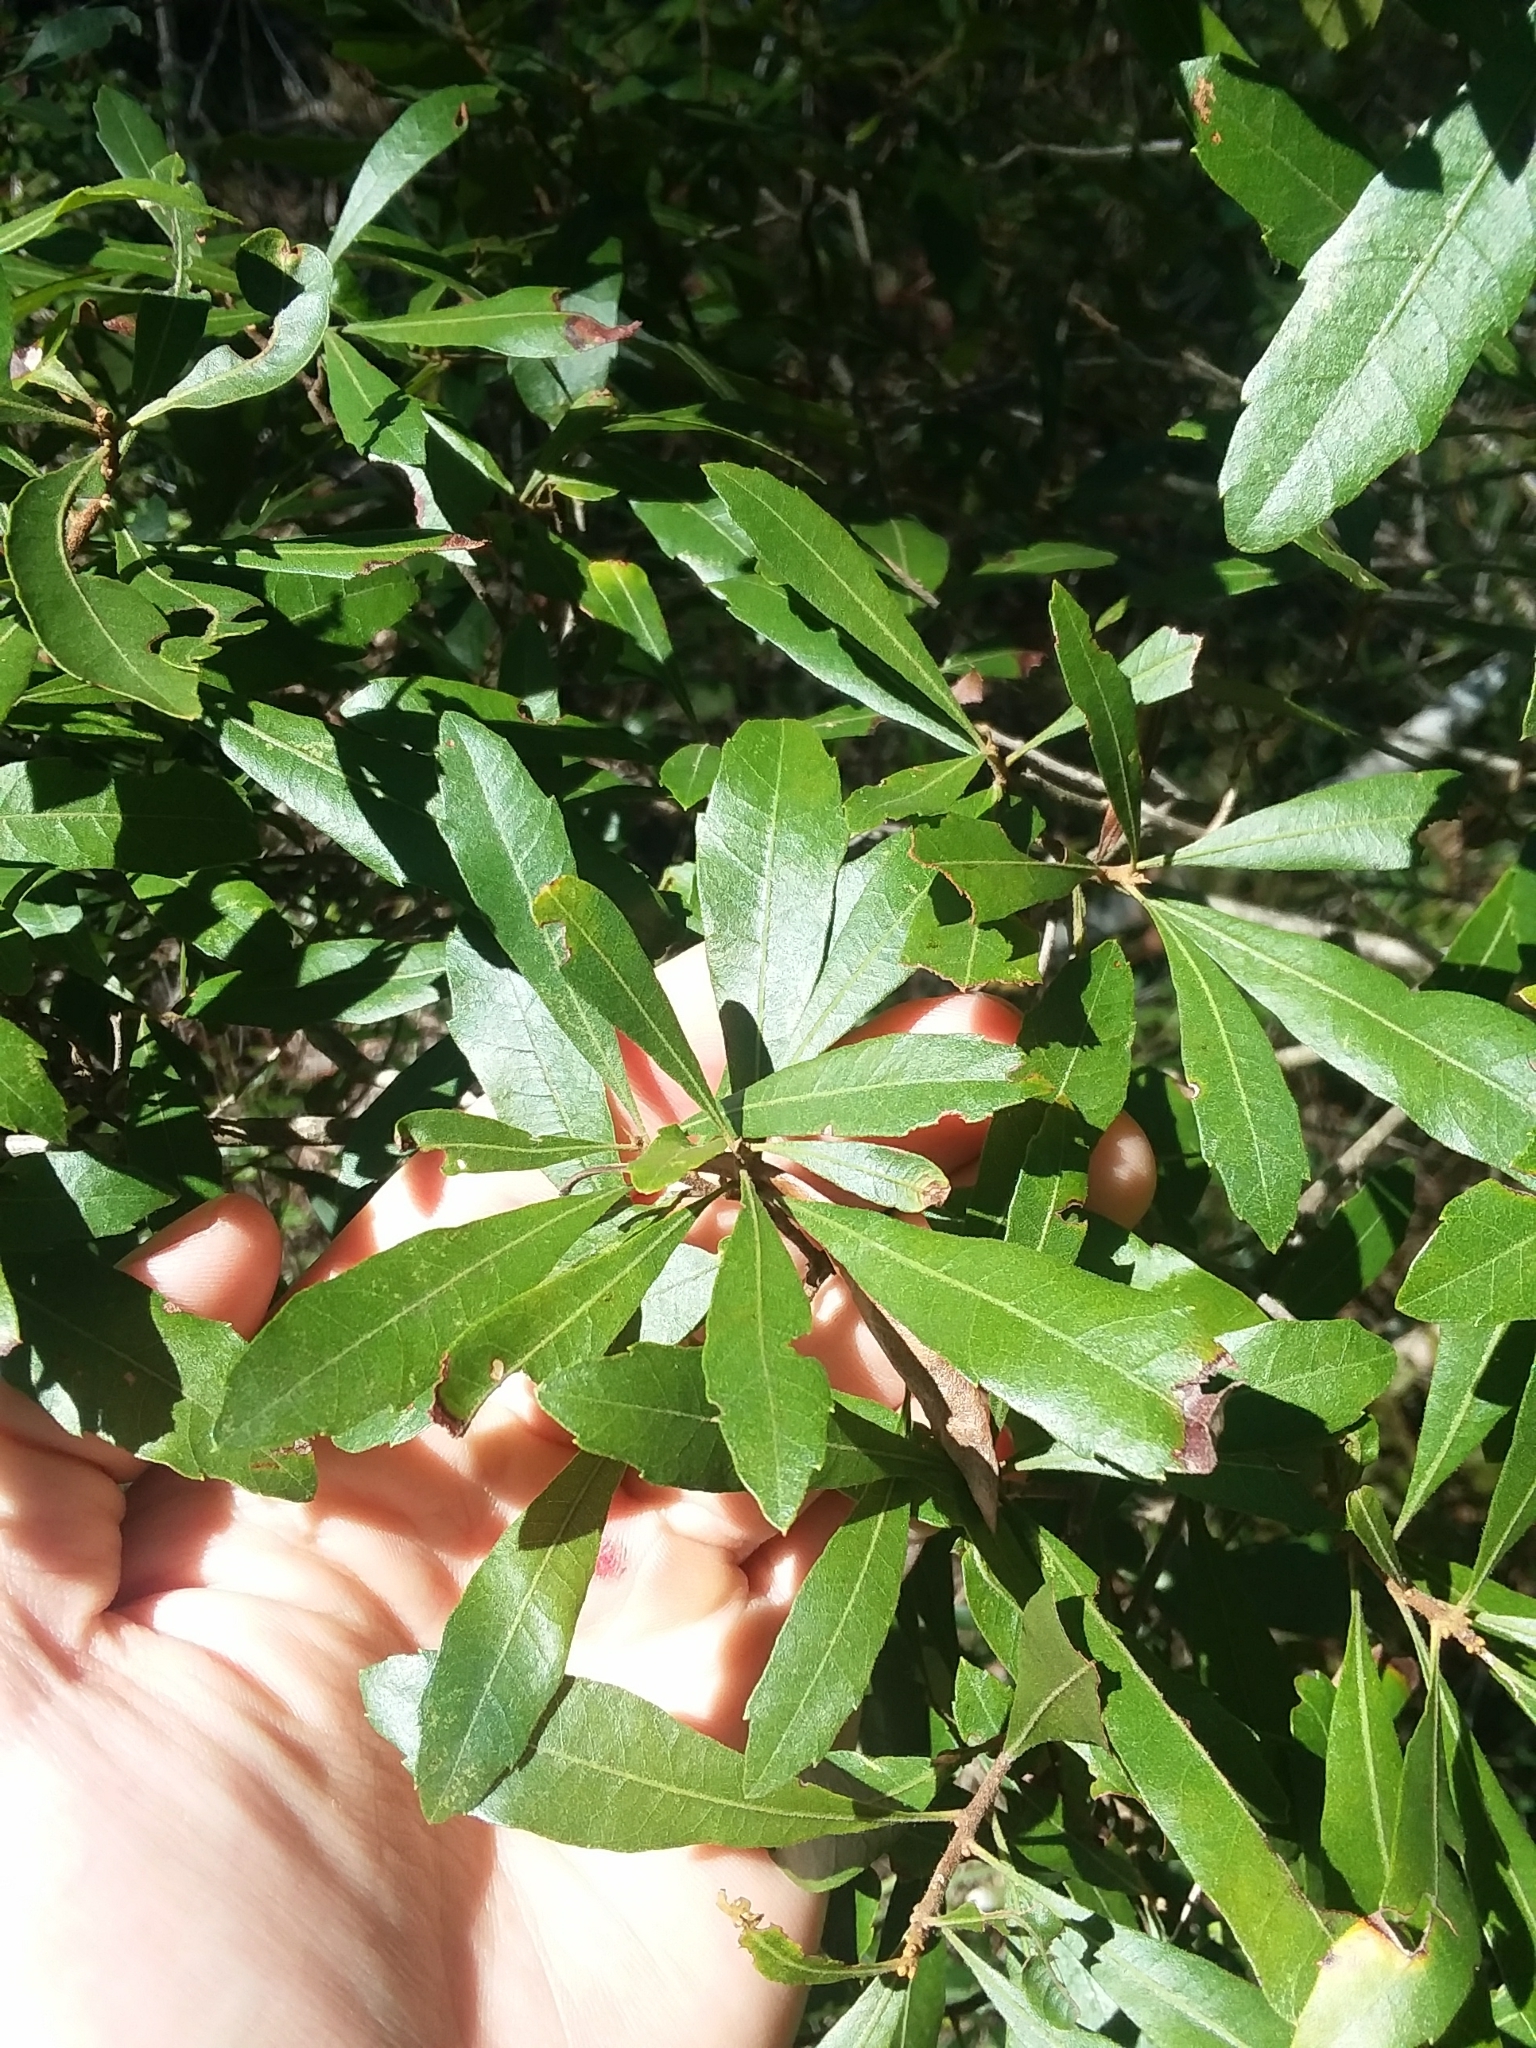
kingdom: Plantae
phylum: Tracheophyta
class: Magnoliopsida
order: Fagales
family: Myricaceae
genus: Morella
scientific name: Morella cerifera
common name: Wax myrtle
